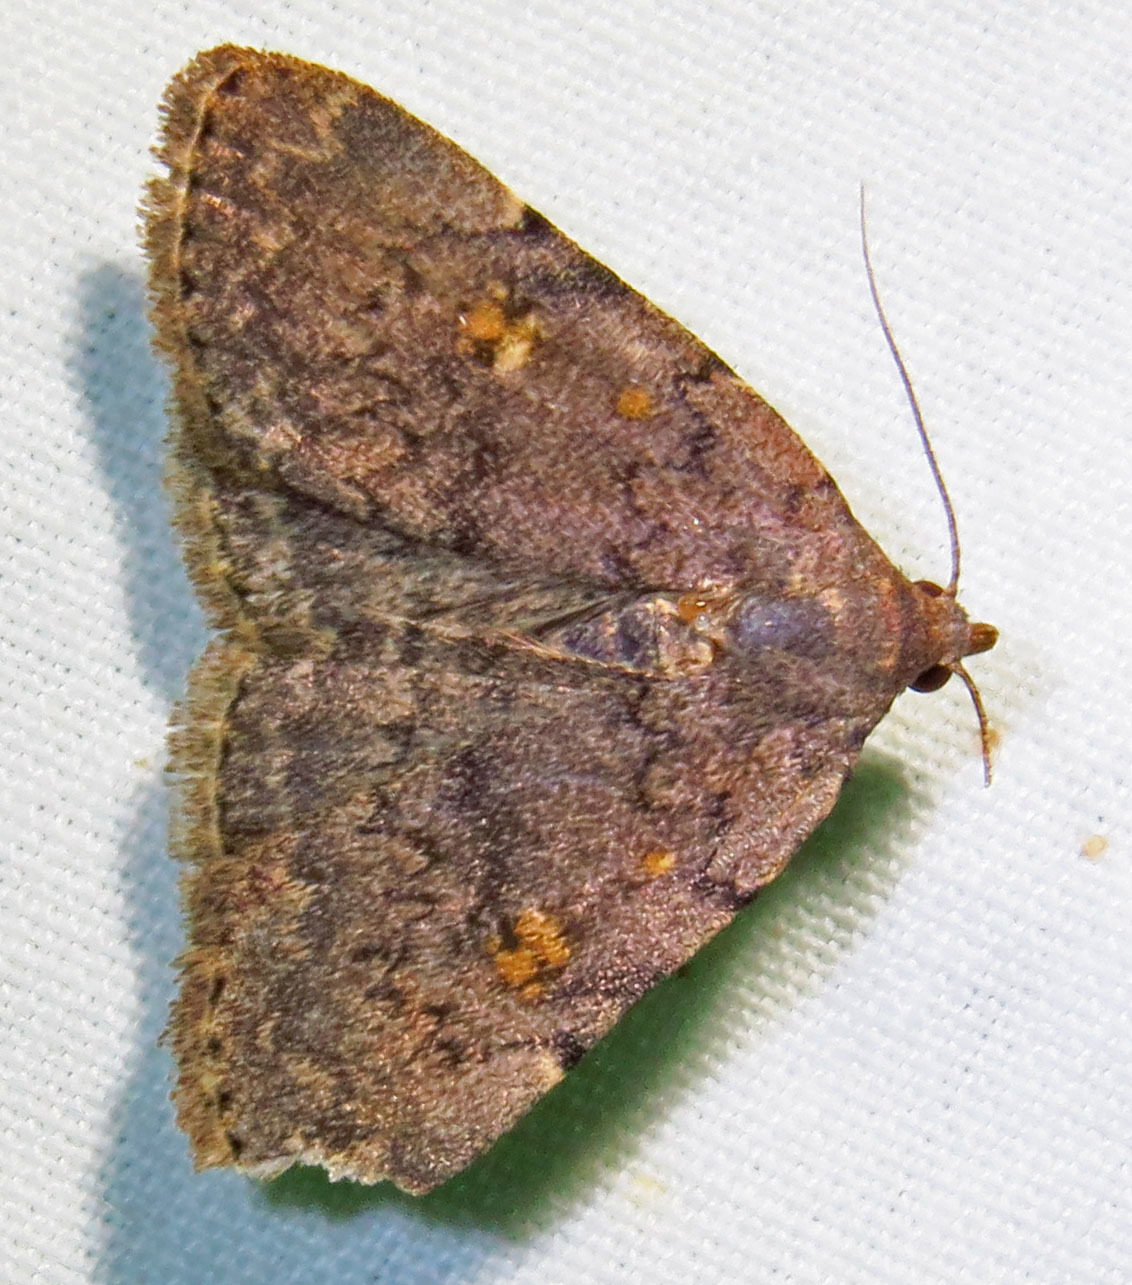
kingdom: Animalia
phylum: Arthropoda
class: Insecta
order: Lepidoptera
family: Erebidae
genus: Idia
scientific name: Idia aemula
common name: Common idia moth
